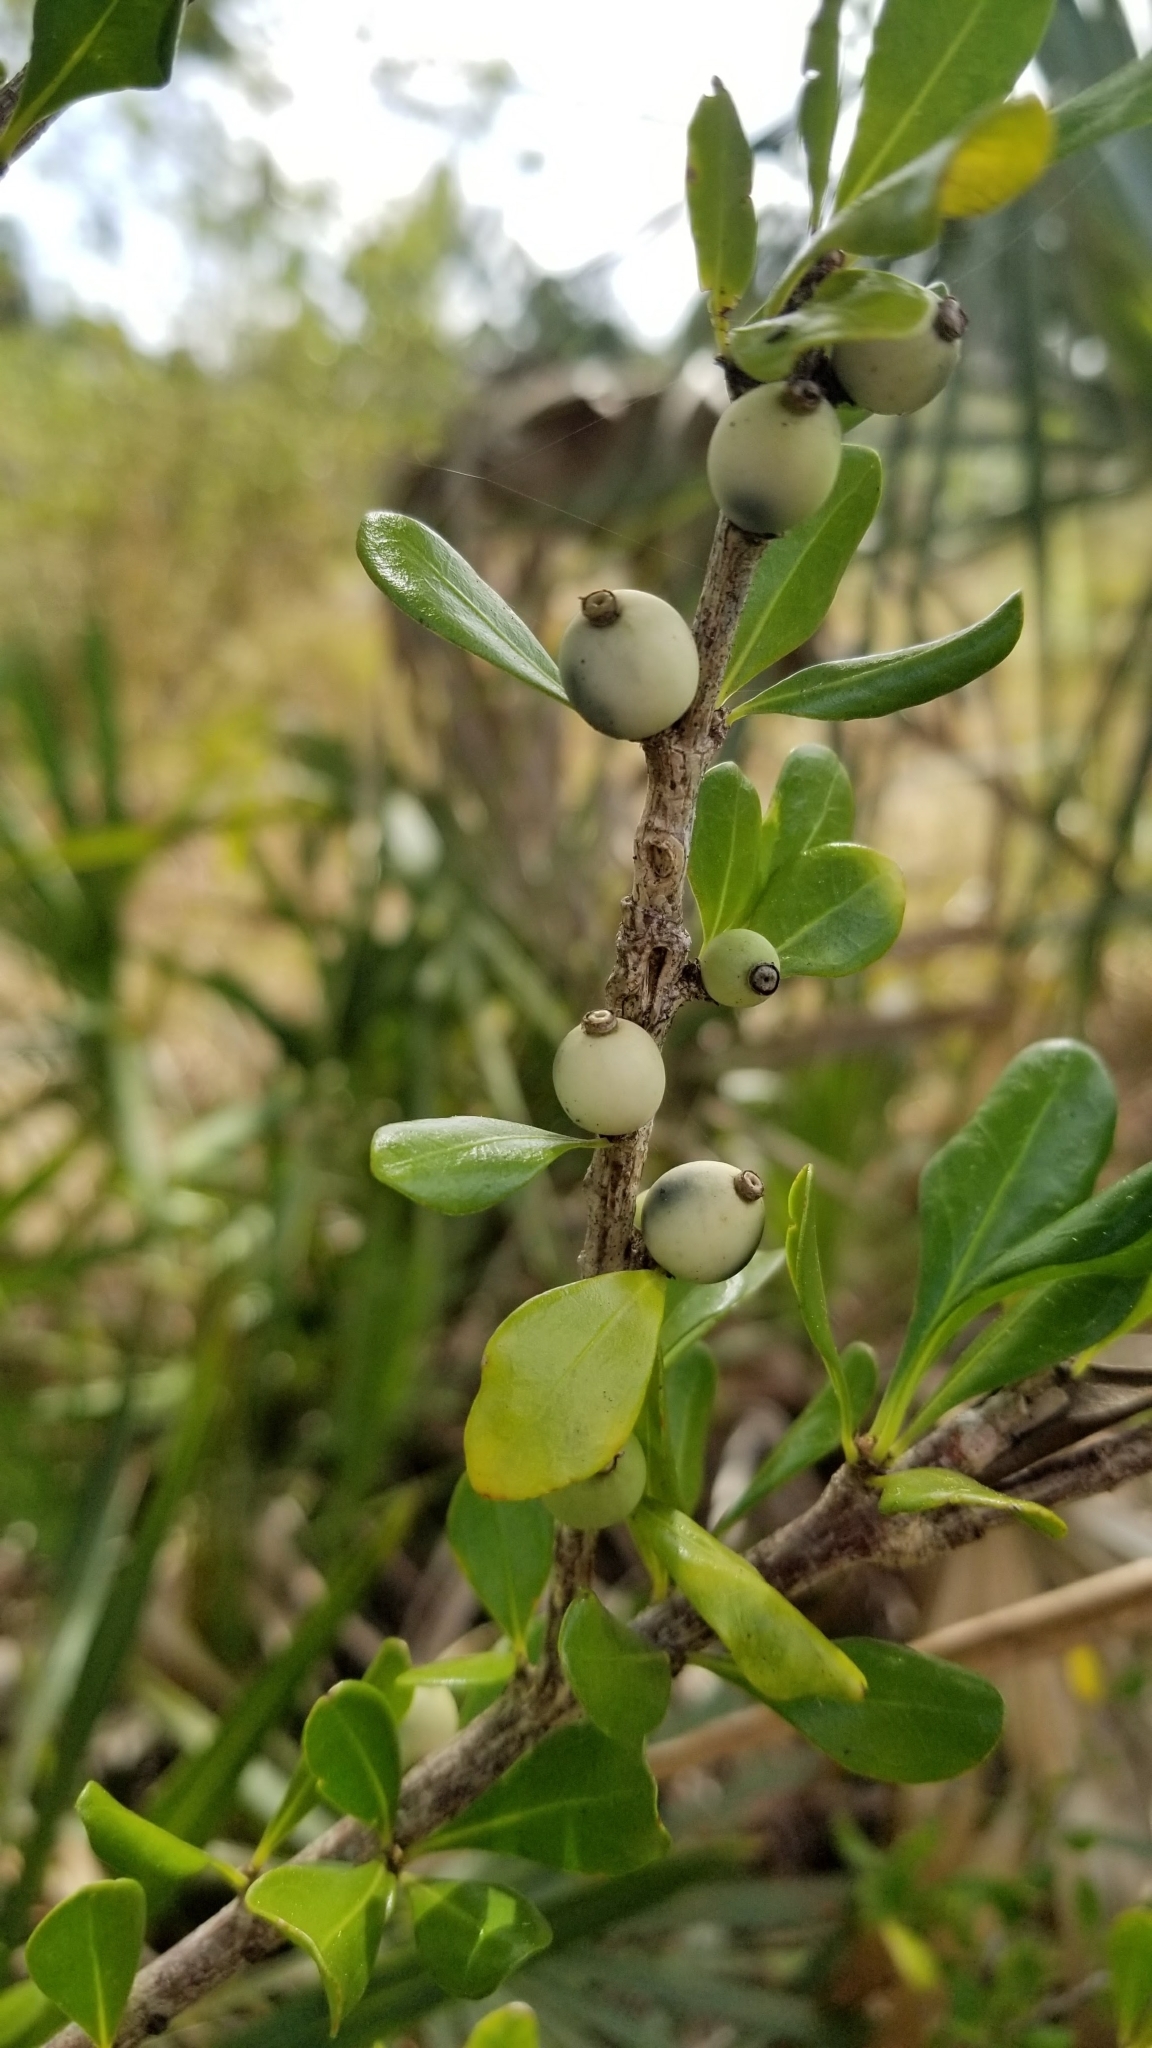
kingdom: Plantae
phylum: Tracheophyta
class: Magnoliopsida
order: Gentianales
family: Rubiaceae
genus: Randia
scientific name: Randia aculeata
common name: Inkberry
